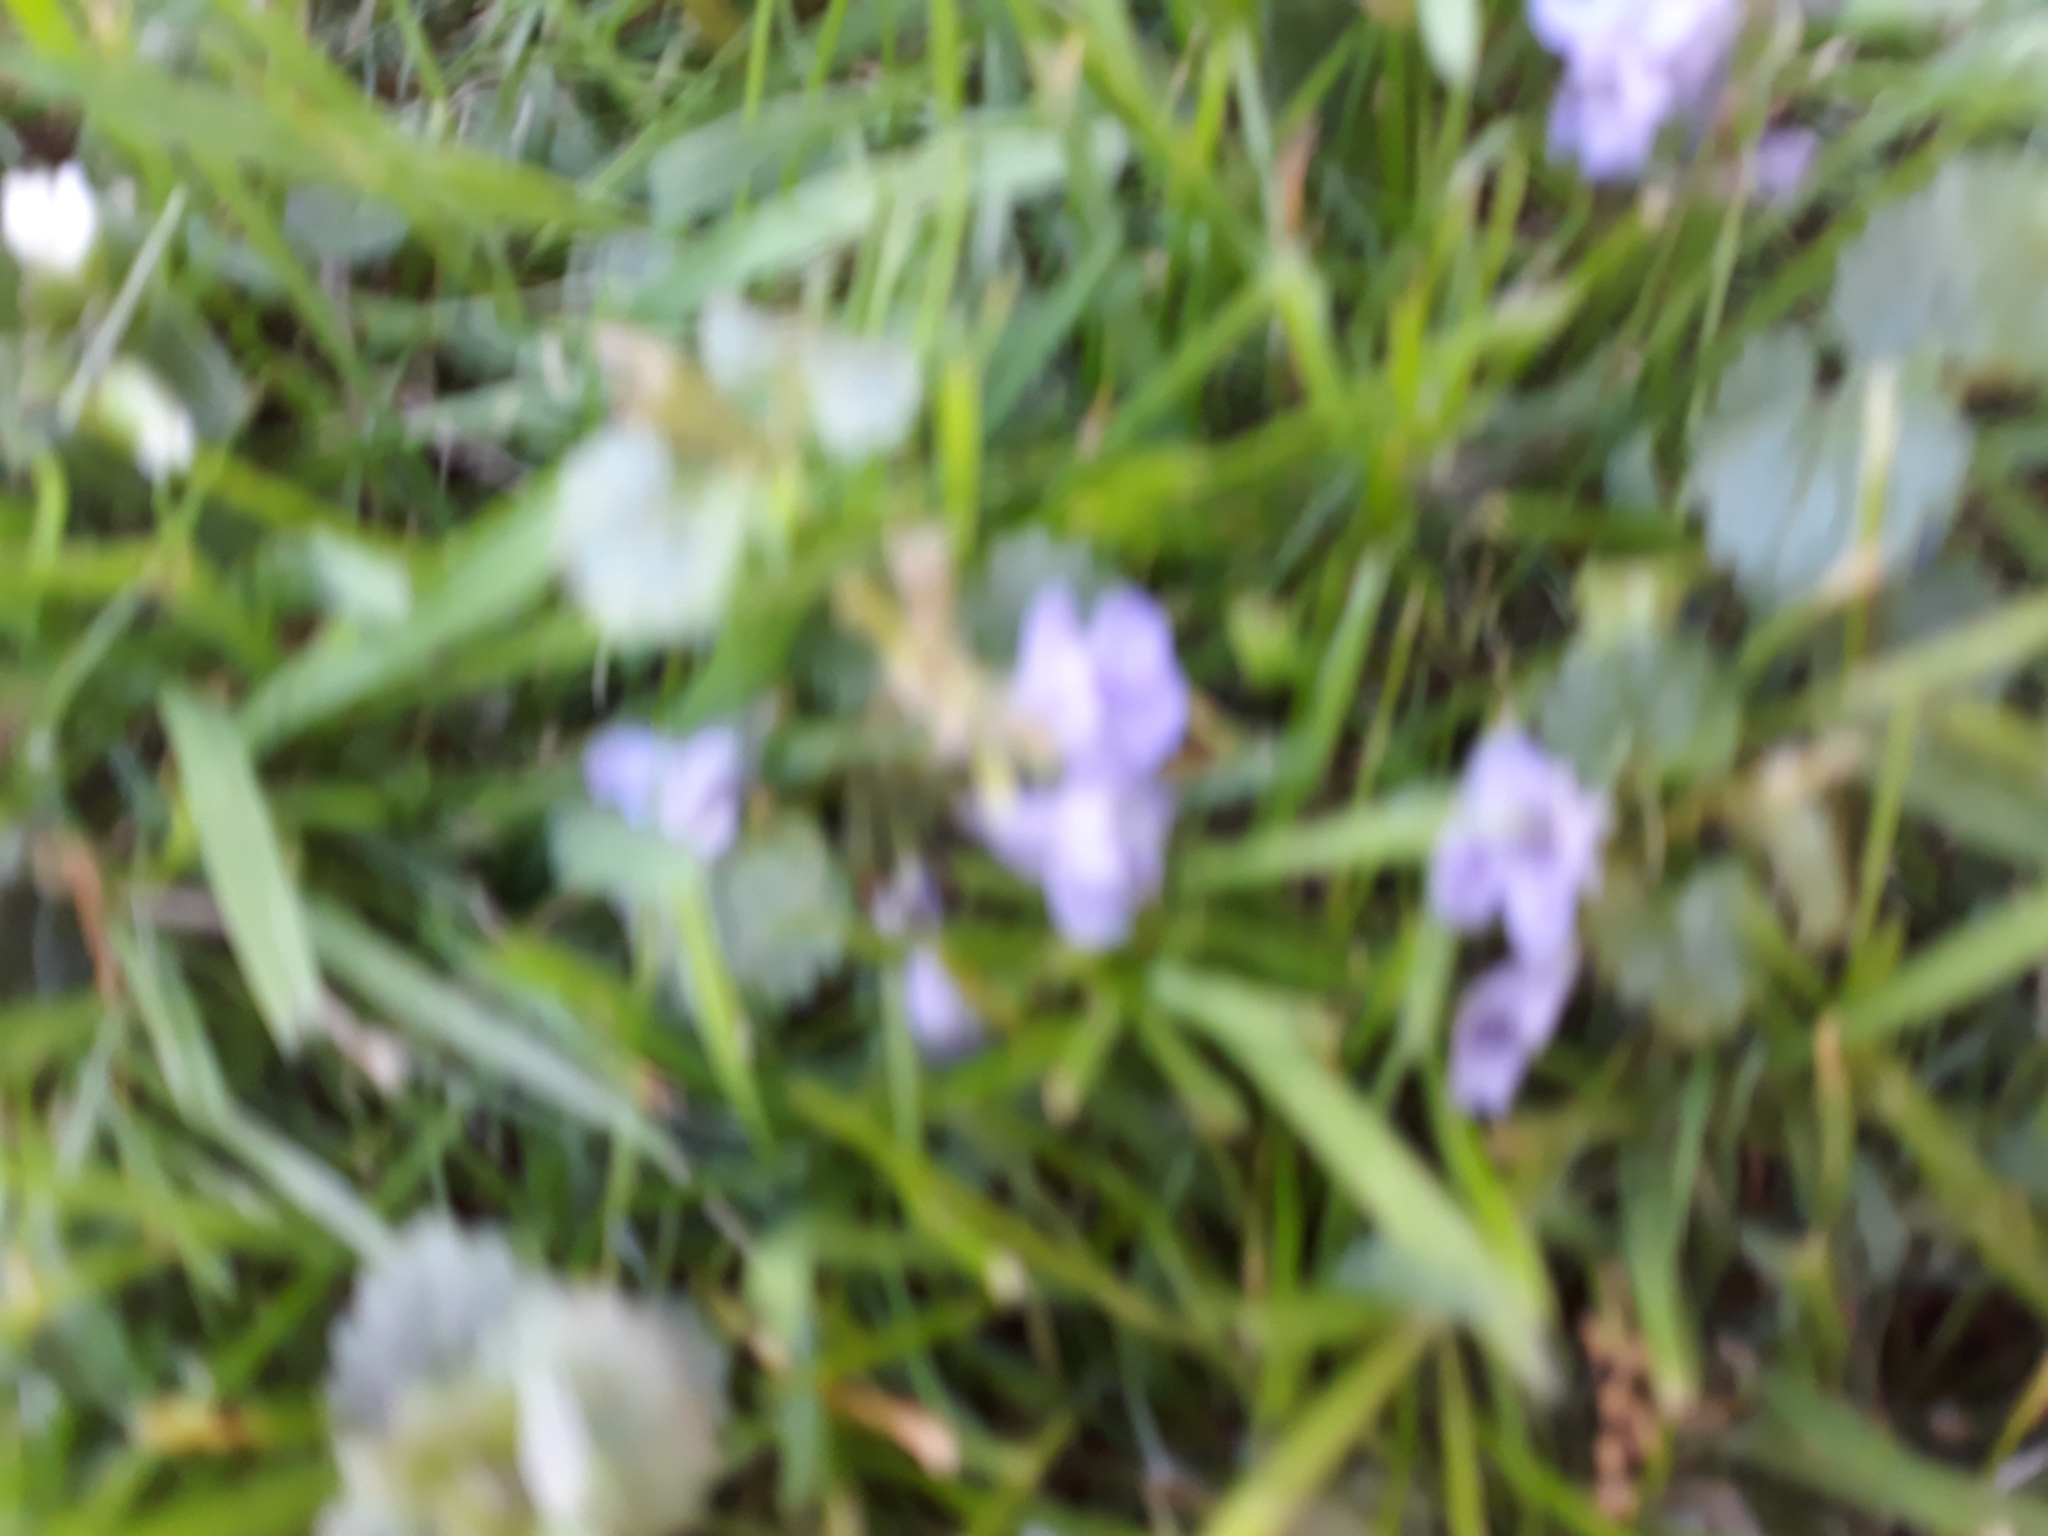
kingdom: Plantae
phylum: Tracheophyta
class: Magnoliopsida
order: Lamiales
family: Lamiaceae
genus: Glechoma
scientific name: Glechoma hederacea
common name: Ground ivy
